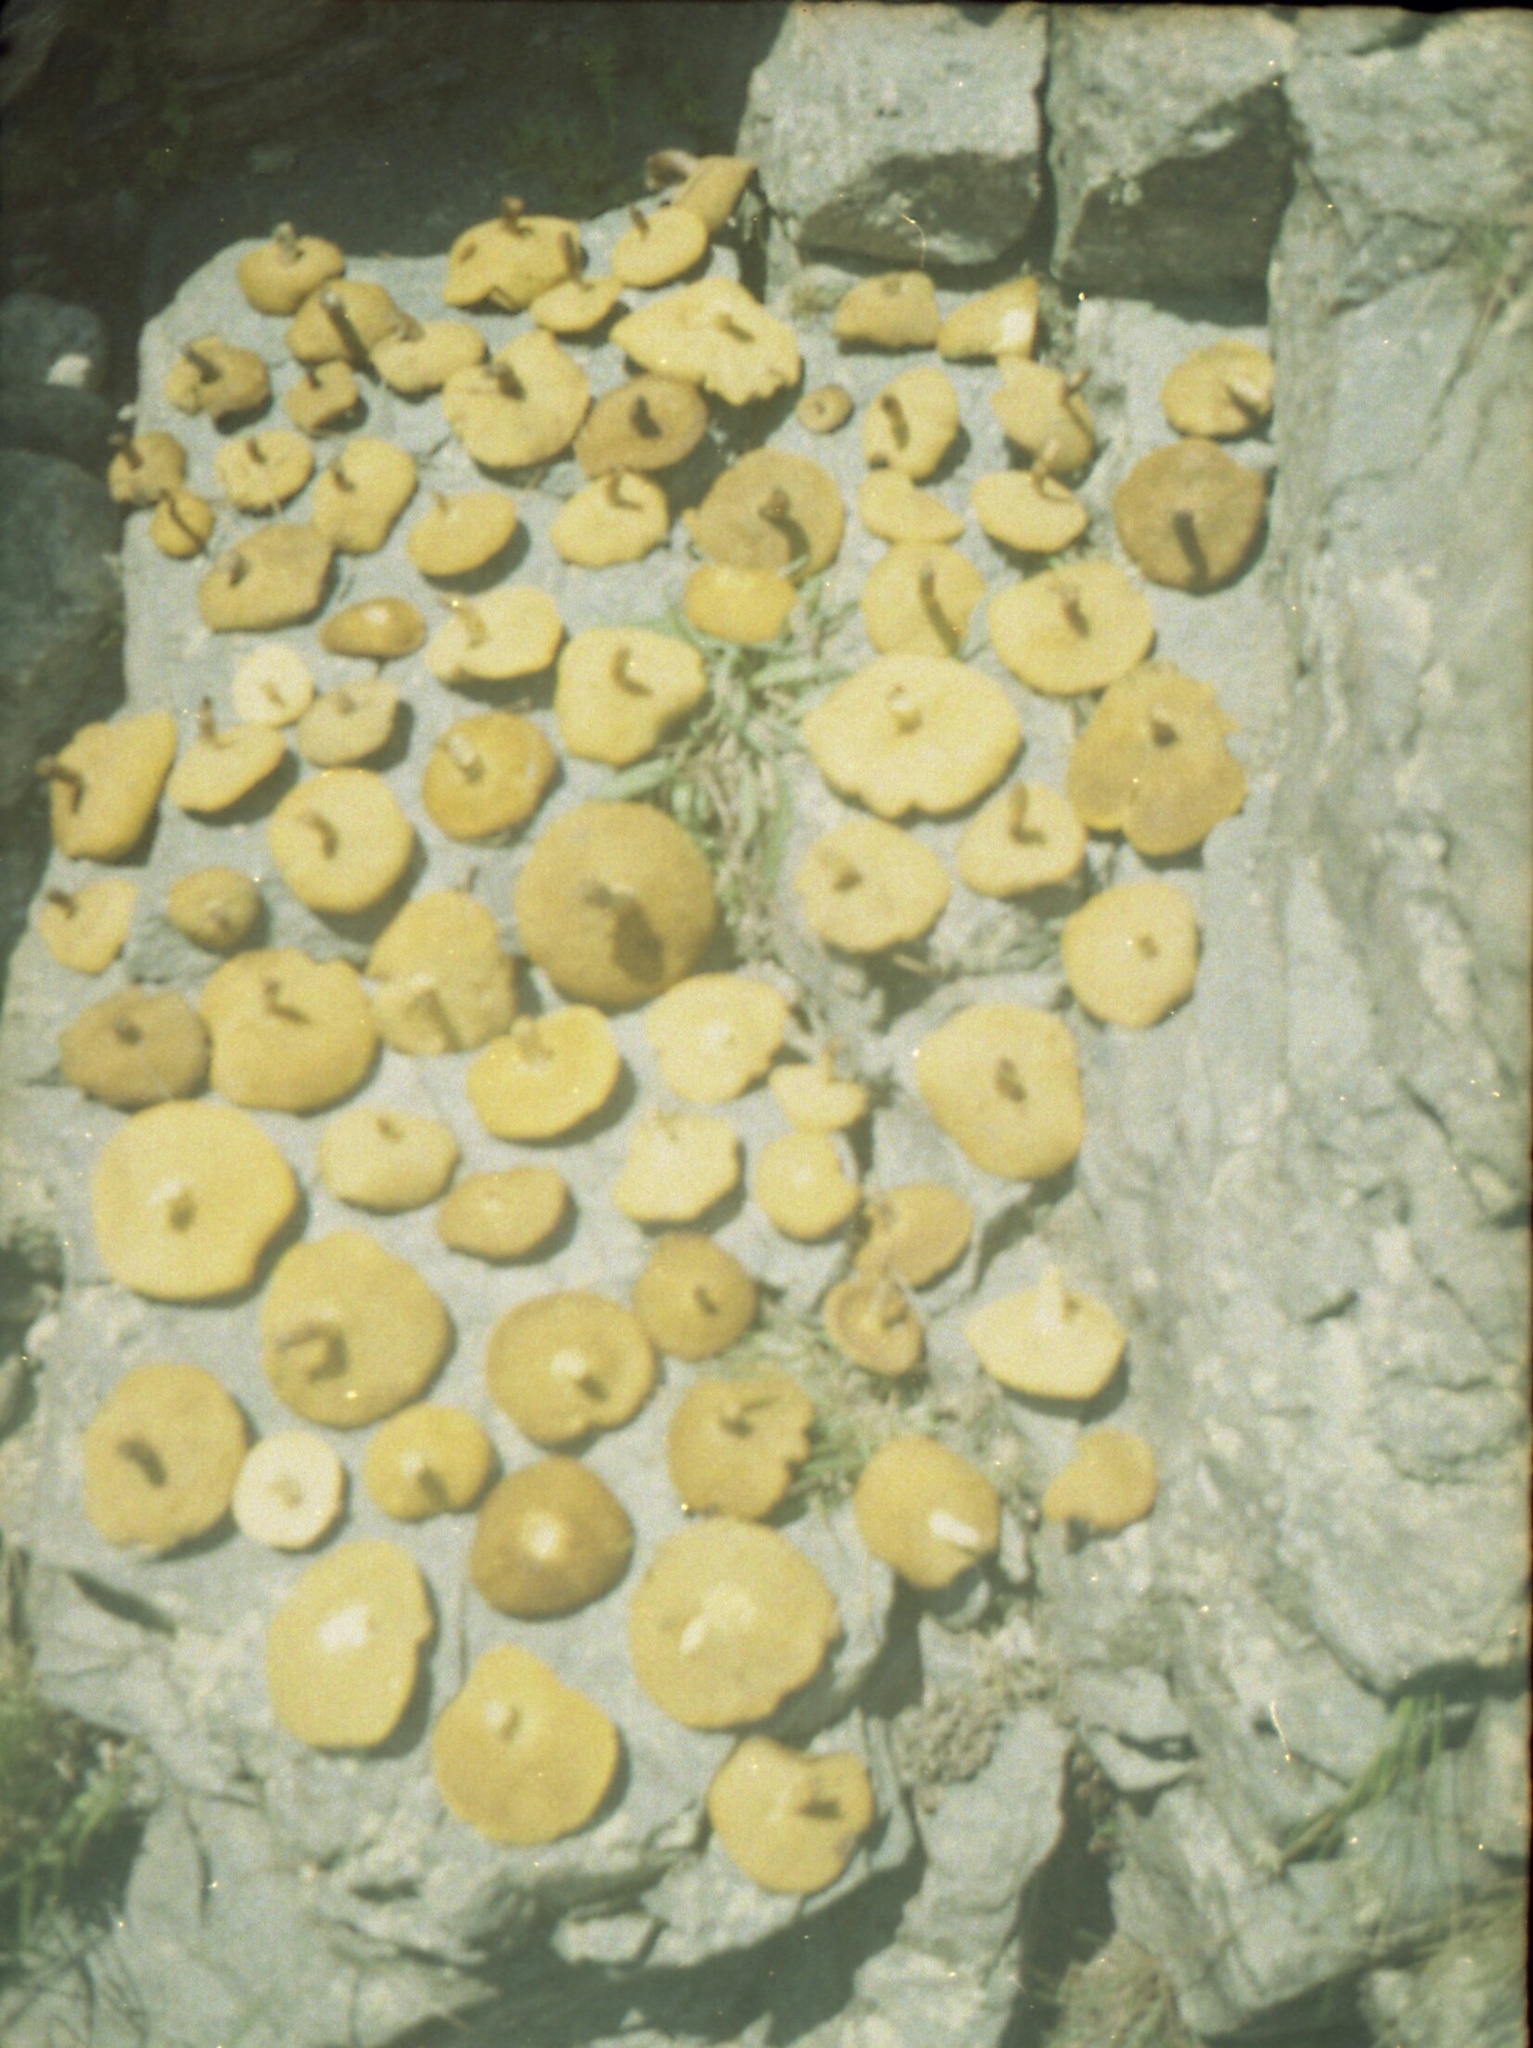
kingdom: Fungi
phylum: Basidiomycota
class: Agaricomycetes
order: Boletales
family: Suillaceae
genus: Suillus
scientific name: Suillus granulatus
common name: Weeping bolete
